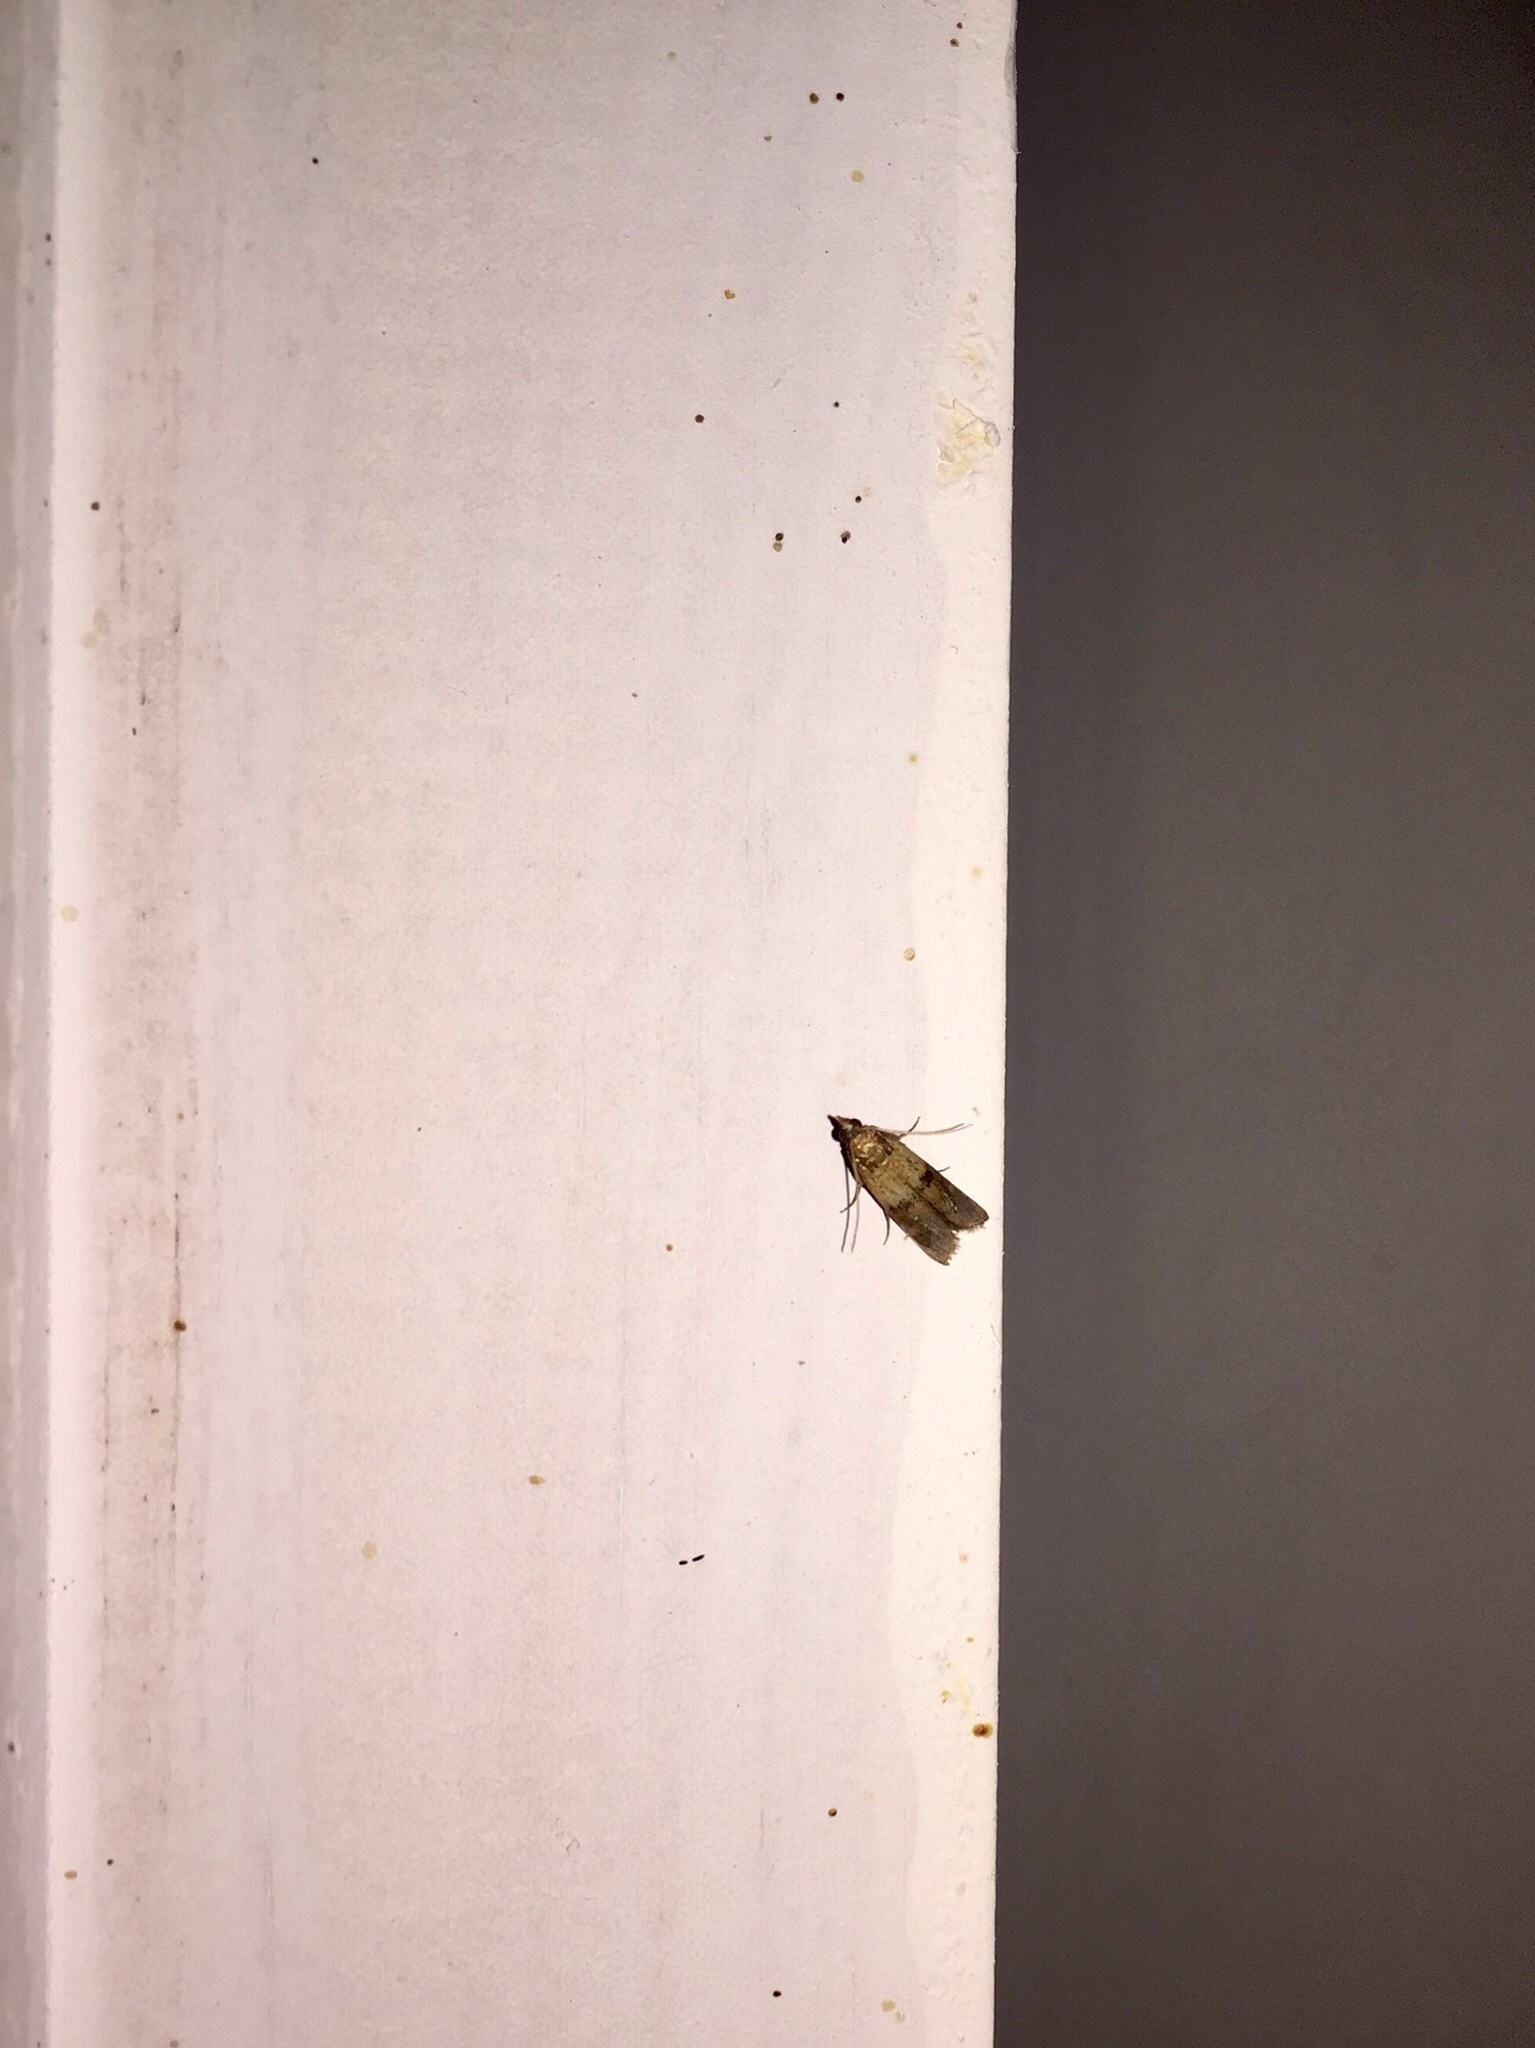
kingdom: Animalia
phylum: Arthropoda
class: Insecta
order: Lepidoptera
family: Pyralidae
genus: Plodia
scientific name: Plodia interpunctella
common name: Indian meal moth
